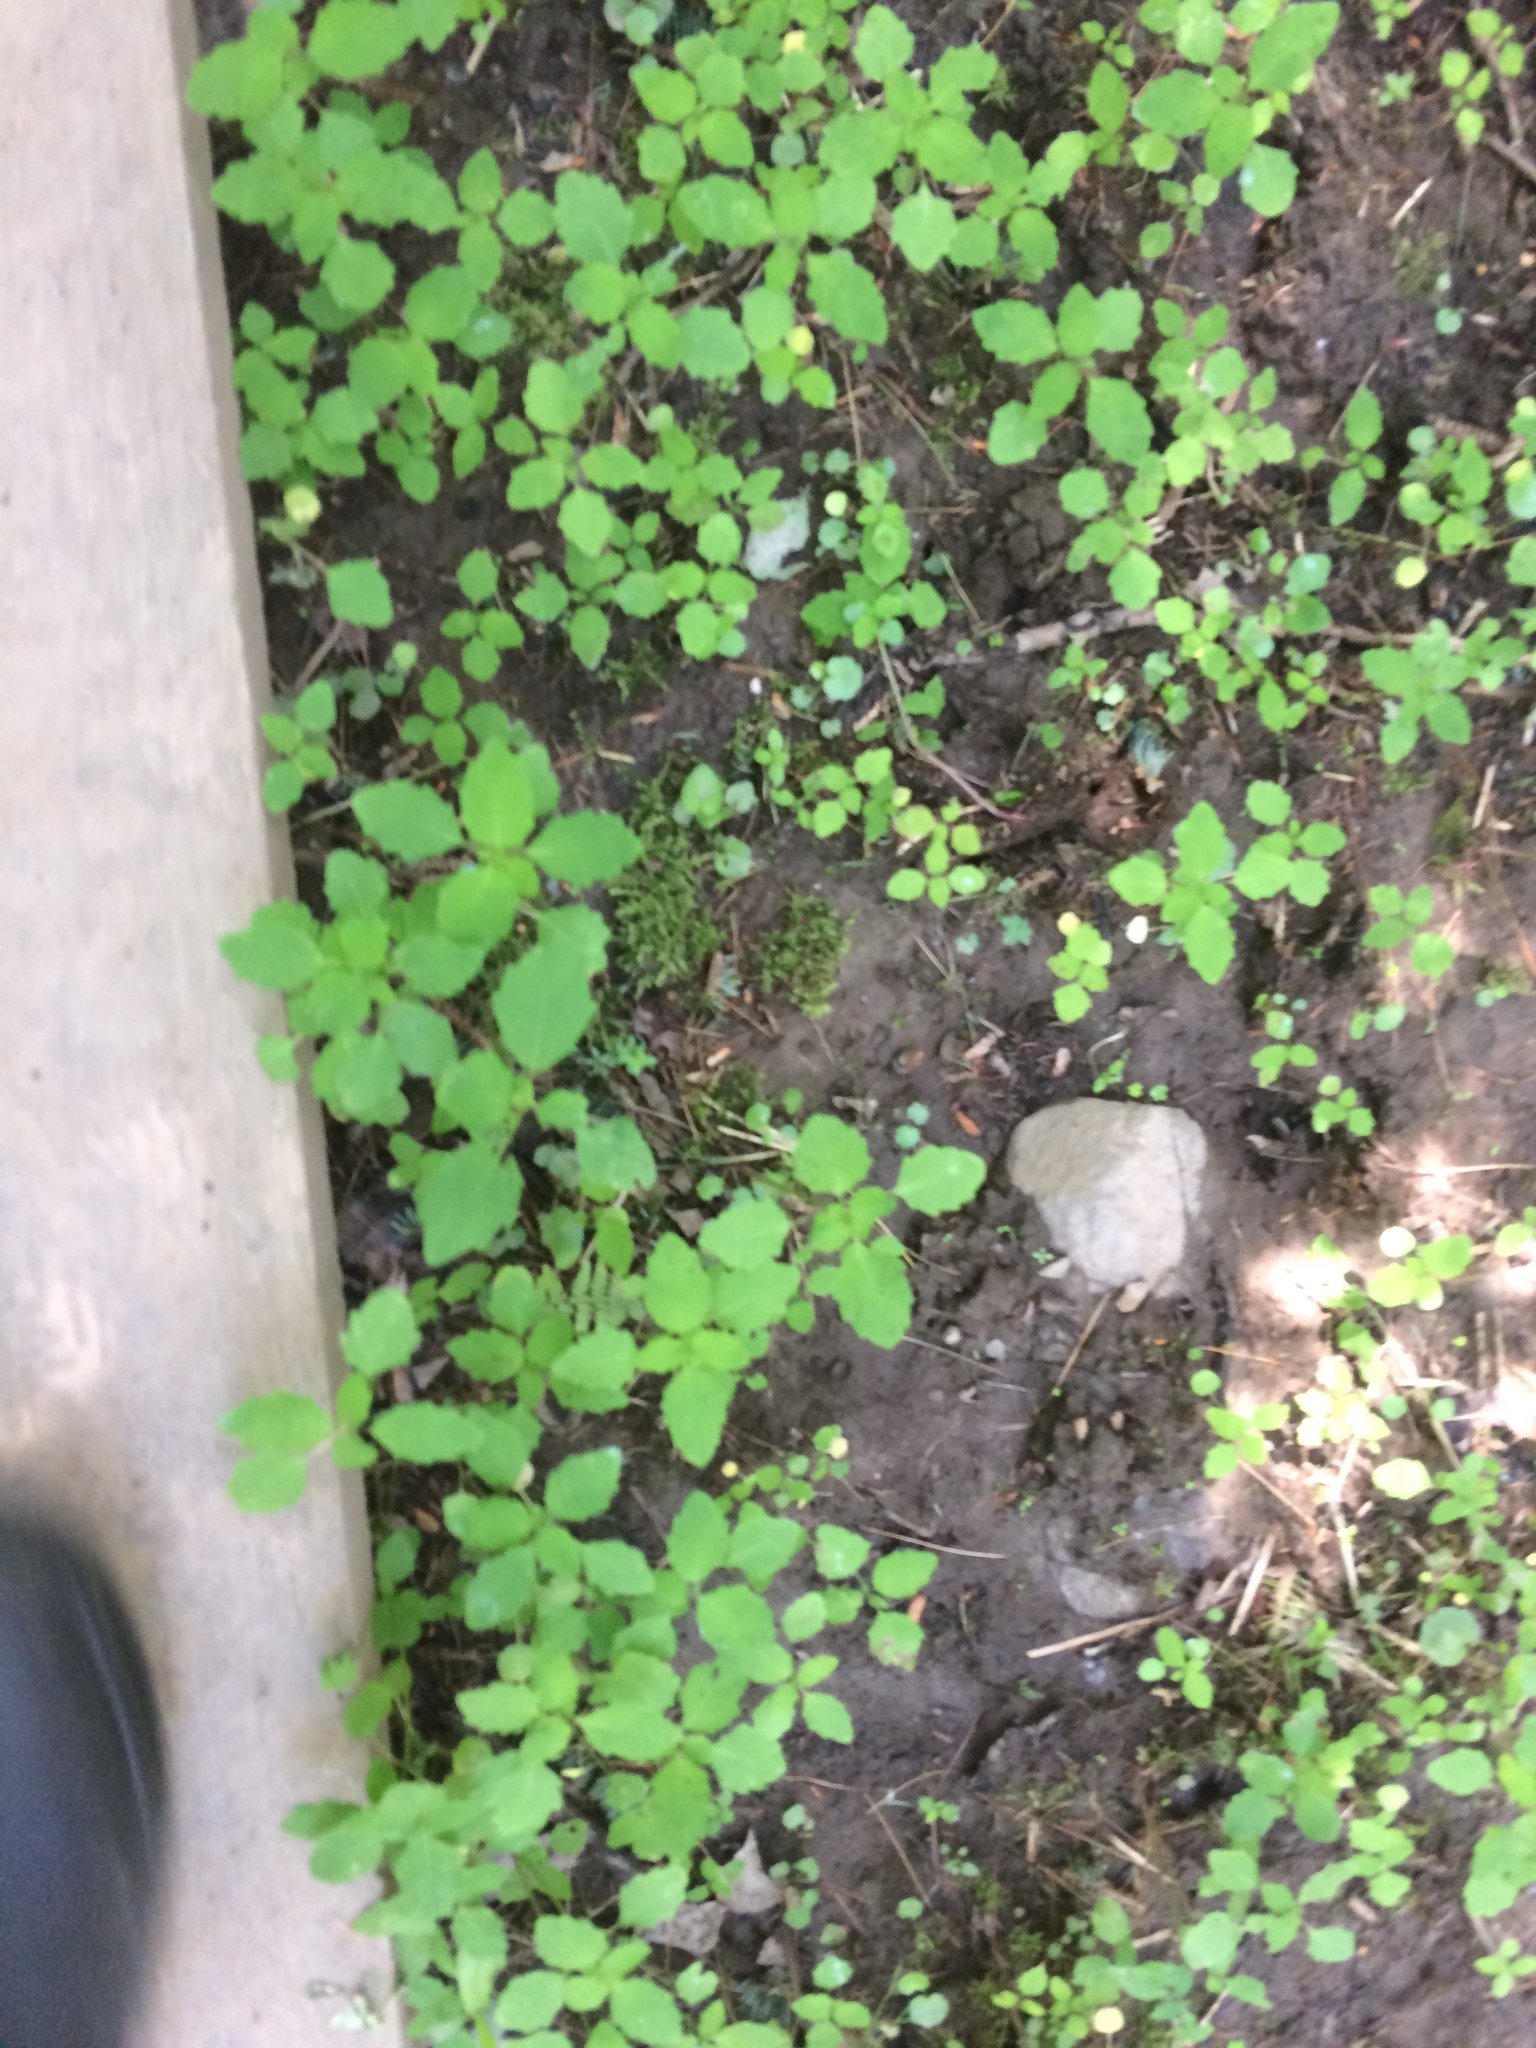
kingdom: Plantae
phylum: Tracheophyta
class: Magnoliopsida
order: Ericales
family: Balsaminaceae
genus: Impatiens
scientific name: Impatiens capensis
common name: Orange balsam
